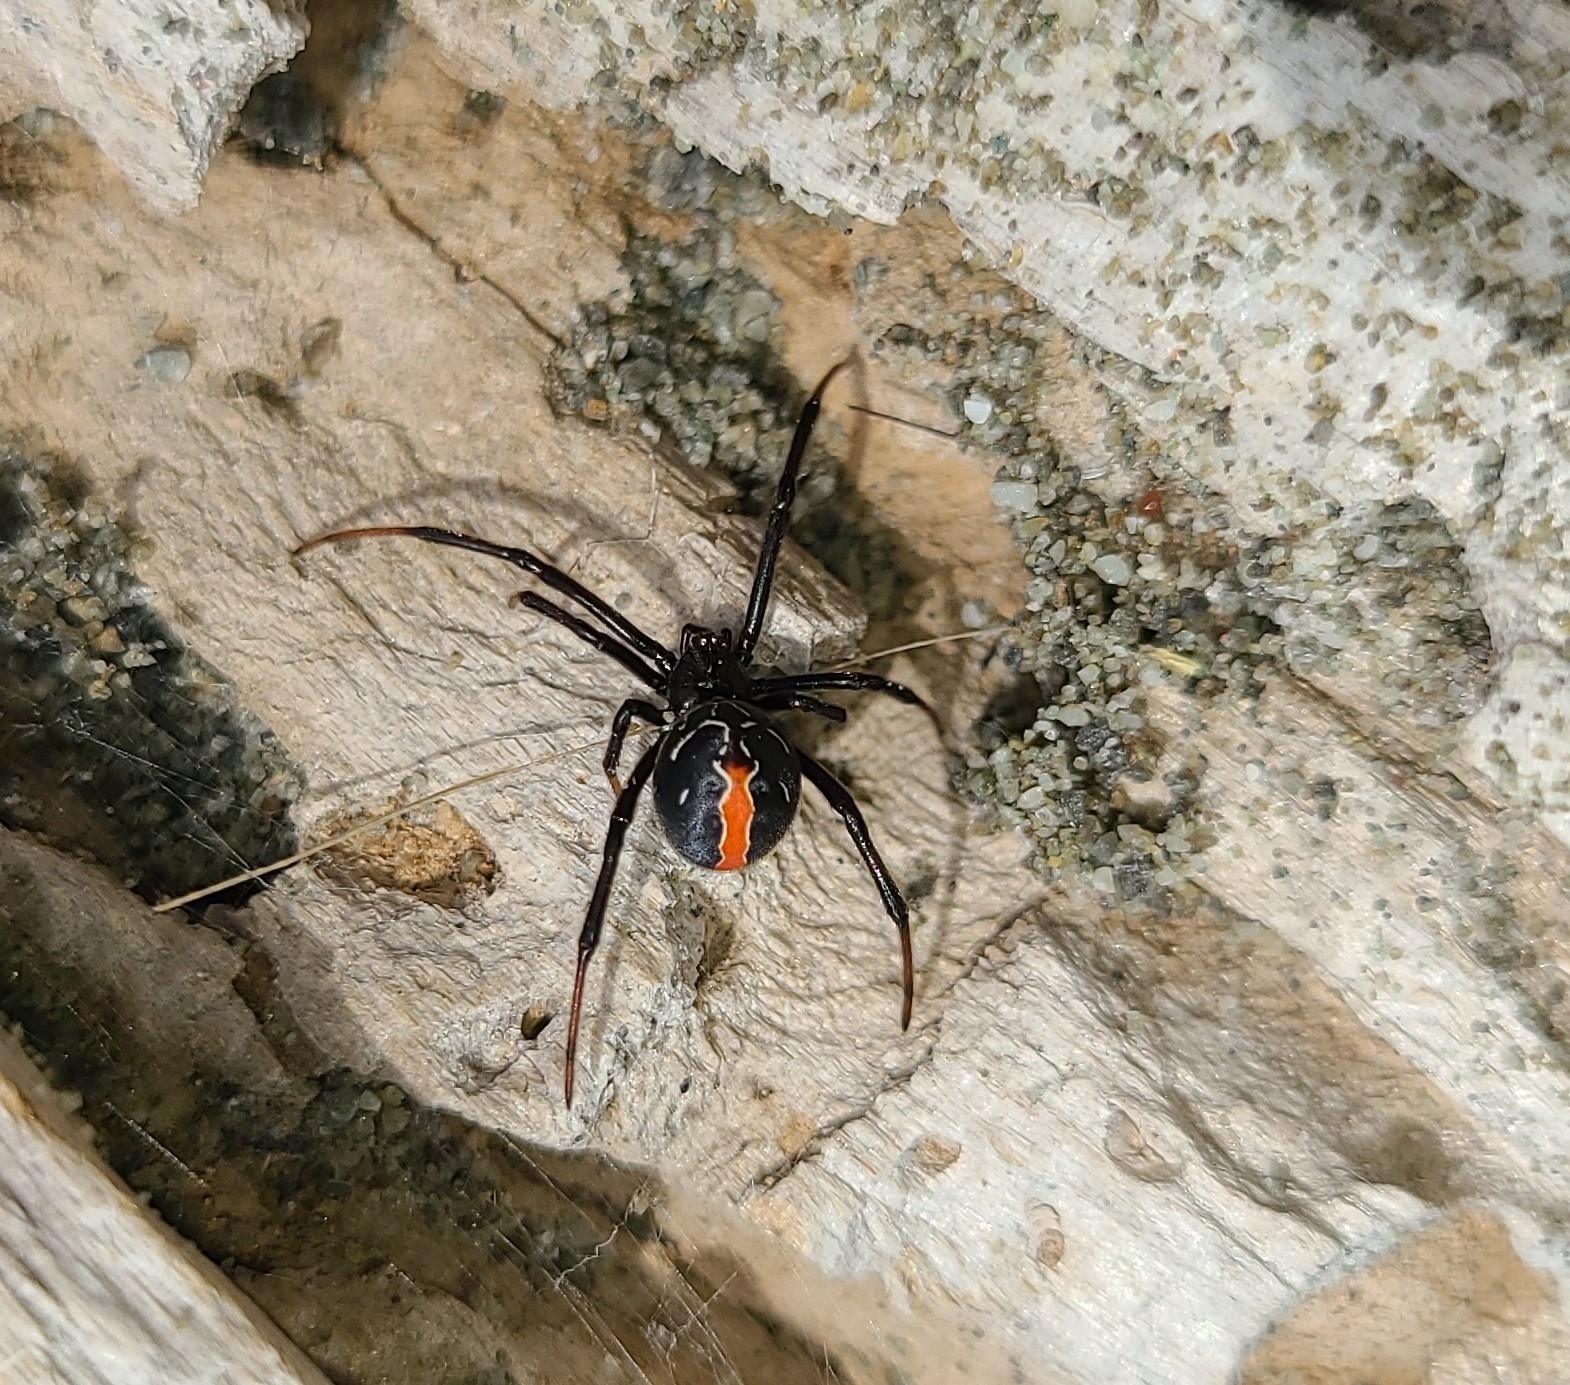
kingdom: Animalia
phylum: Arthropoda
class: Arachnida
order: Araneae
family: Theridiidae
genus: Latrodectus
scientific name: Latrodectus katipo
